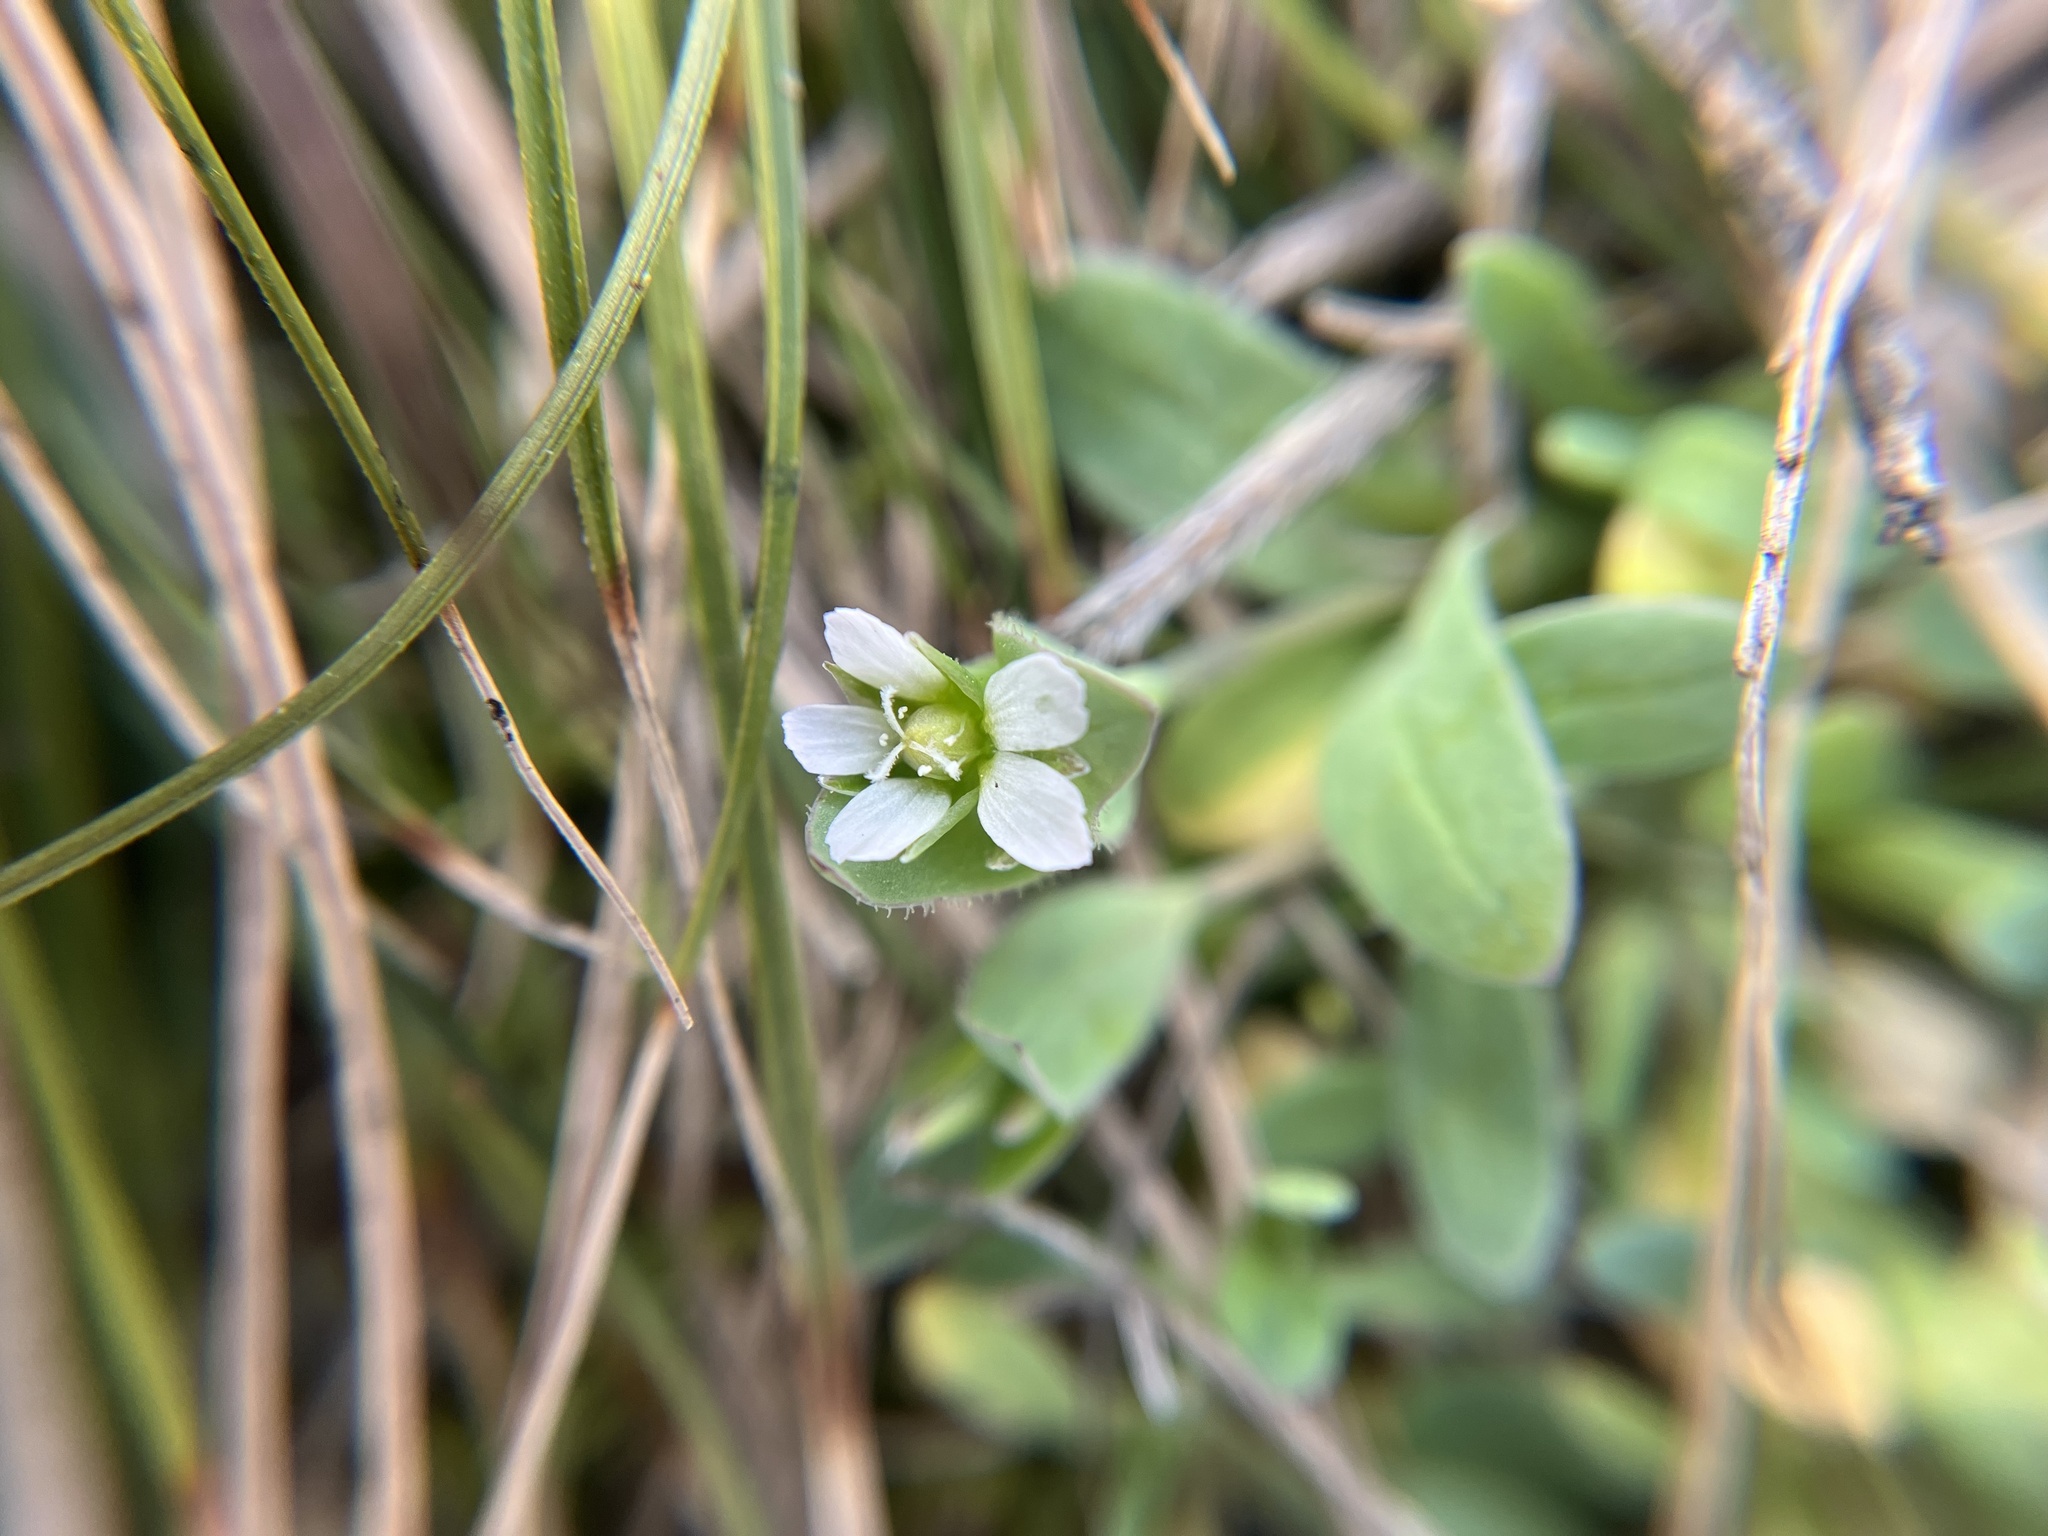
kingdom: Plantae
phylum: Tracheophyta
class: Magnoliopsida
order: Caryophyllales
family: Caryophyllaceae
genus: Holosteum
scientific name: Holosteum umbellatum
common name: Jagged chickweed
